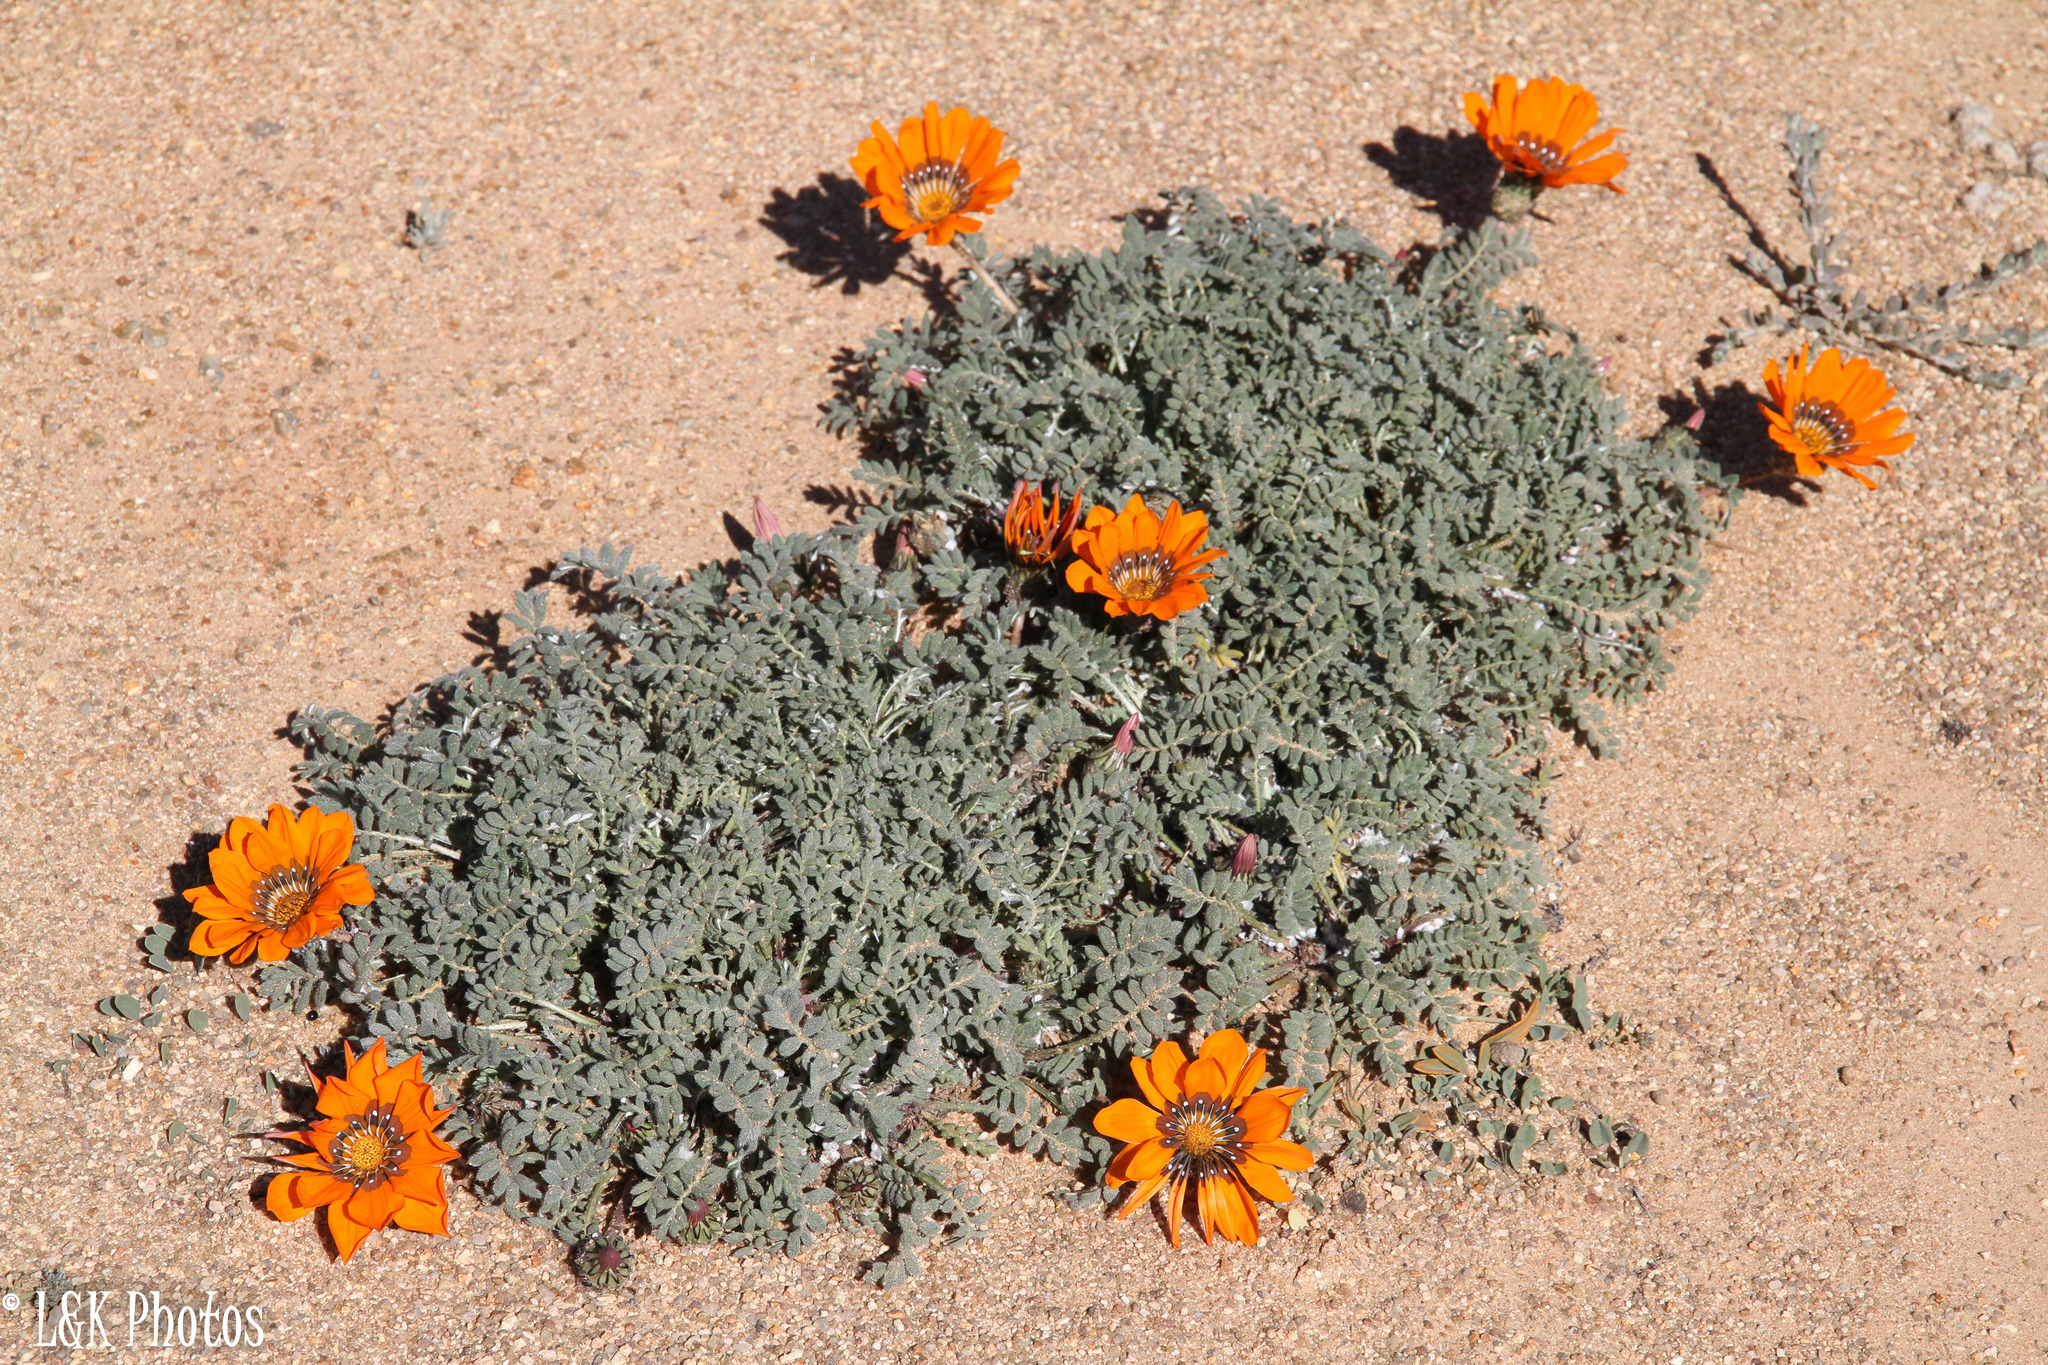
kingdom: Plantae
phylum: Tracheophyta
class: Magnoliopsida
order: Asterales
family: Asteraceae
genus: Gazania
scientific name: Gazania leiopoda
